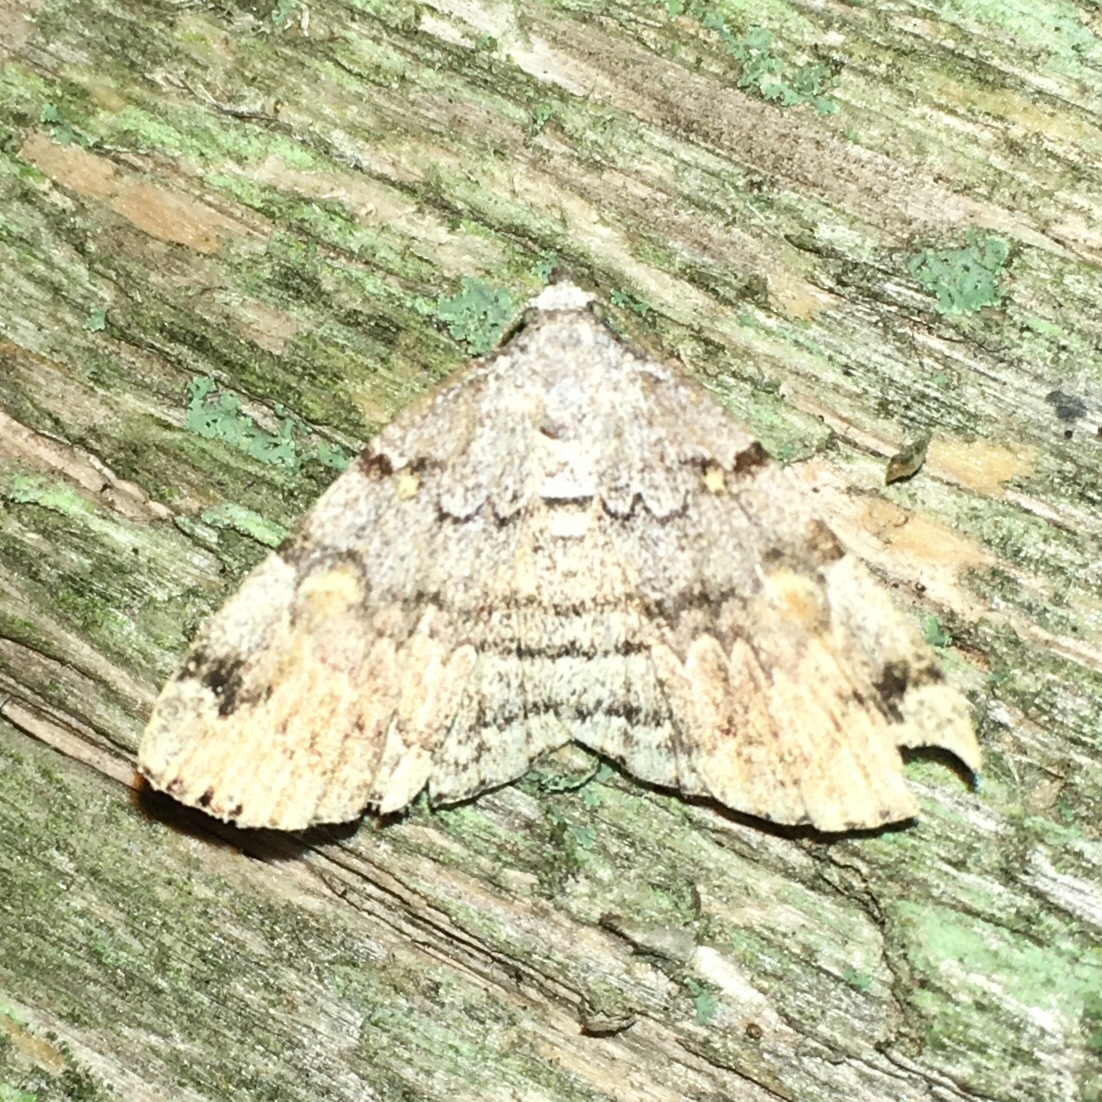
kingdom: Animalia
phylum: Arthropoda
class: Insecta
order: Lepidoptera
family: Erebidae
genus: Idia
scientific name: Idia americalis
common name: American idia moth
